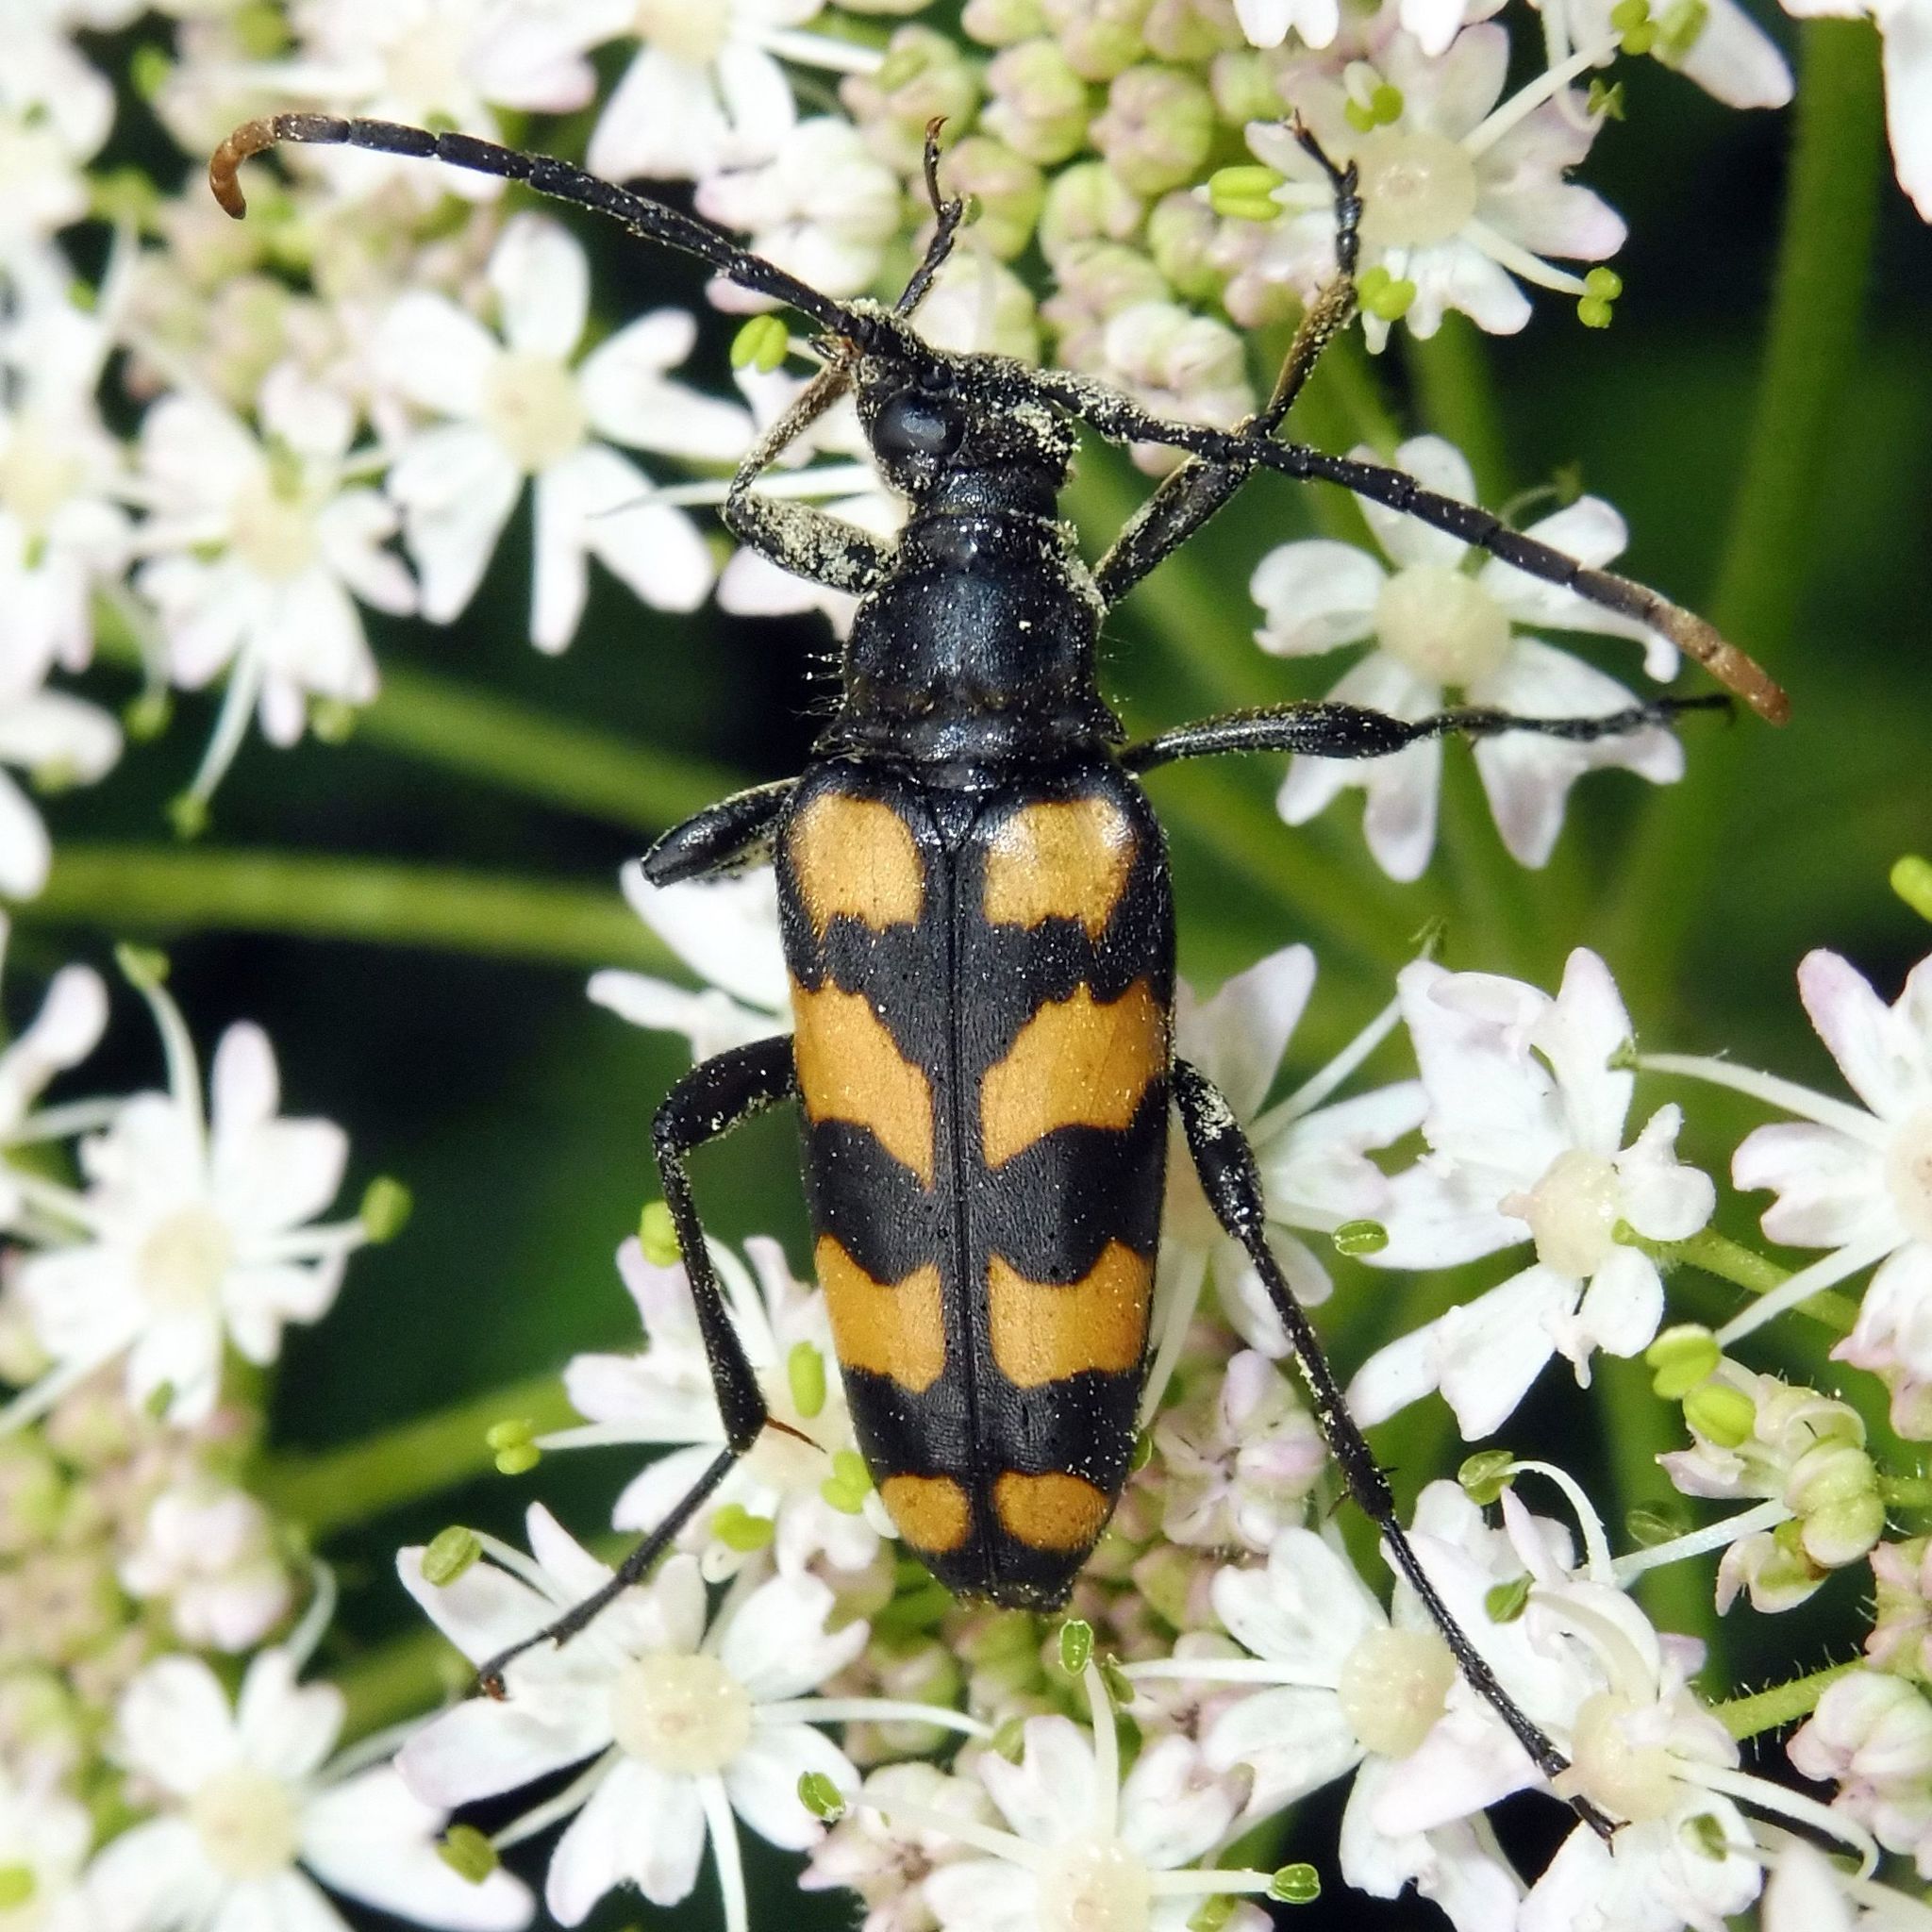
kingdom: Animalia
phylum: Arthropoda
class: Insecta
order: Coleoptera
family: Cerambycidae
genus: Leptura
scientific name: Leptura quadrifasciata
